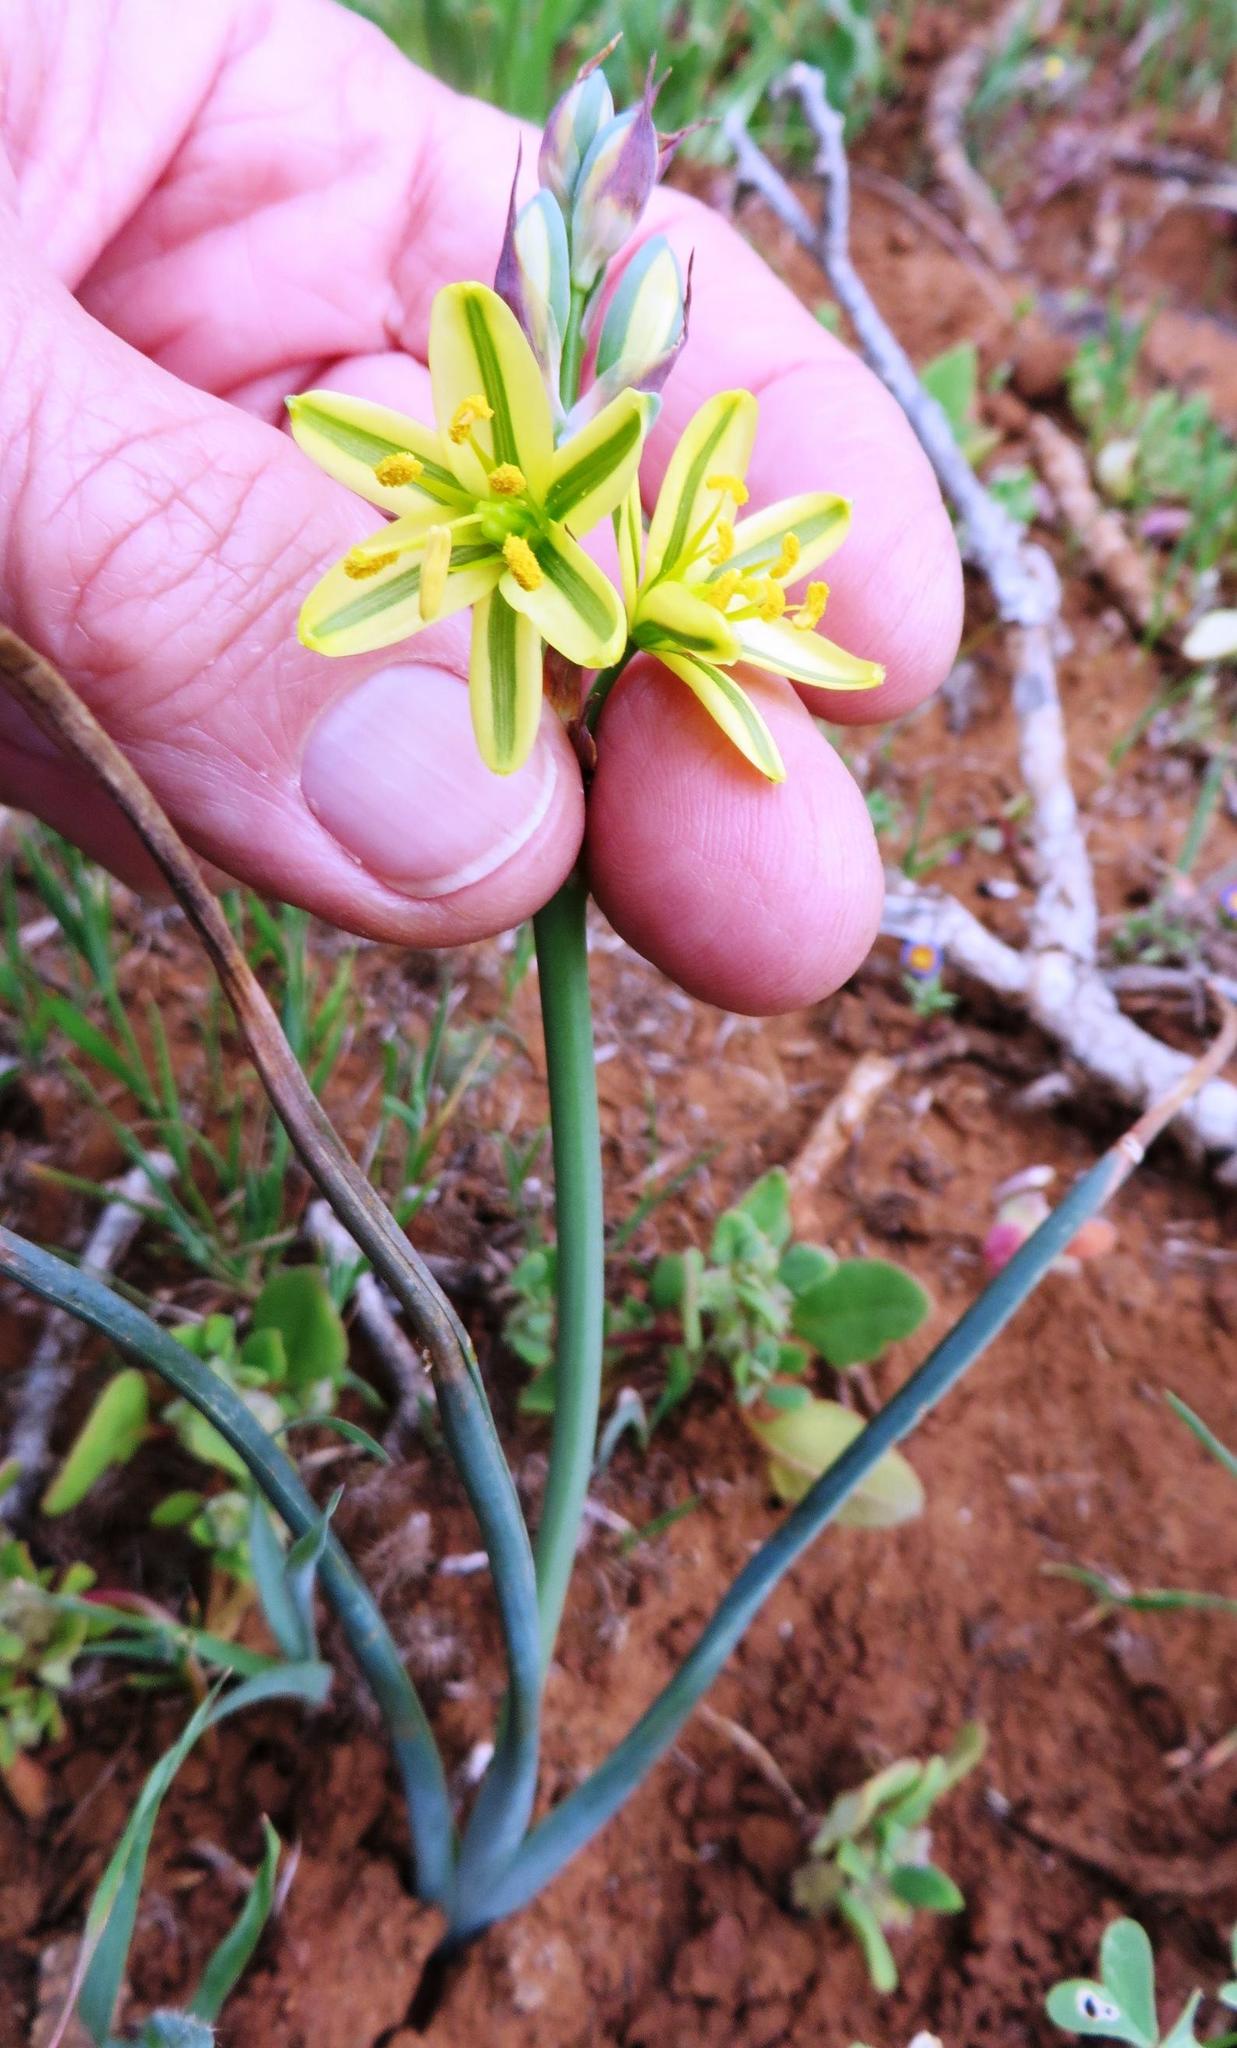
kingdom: Plantae
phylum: Tracheophyta
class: Liliopsida
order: Asparagales
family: Asparagaceae
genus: Albuca
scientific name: Albuca suaveolens
